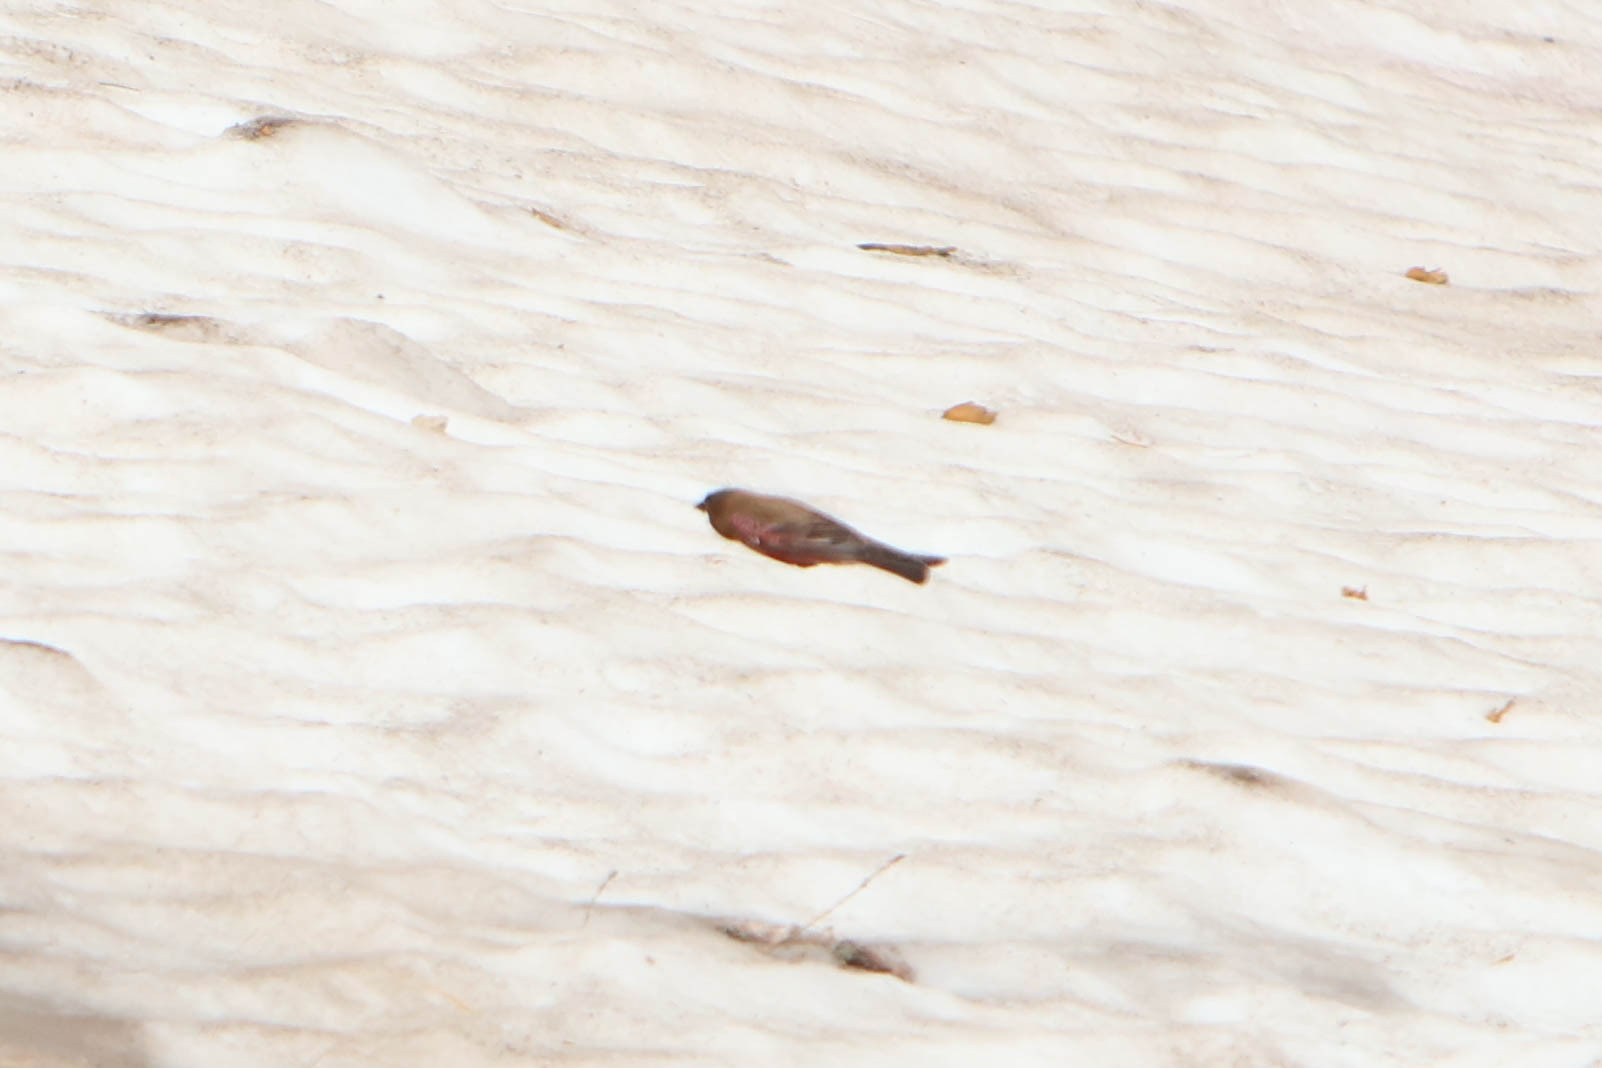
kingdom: Animalia
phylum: Chordata
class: Aves
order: Passeriformes
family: Fringillidae
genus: Leucosticte
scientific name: Leucosticte australis
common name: Brown-capped rosy-finch
